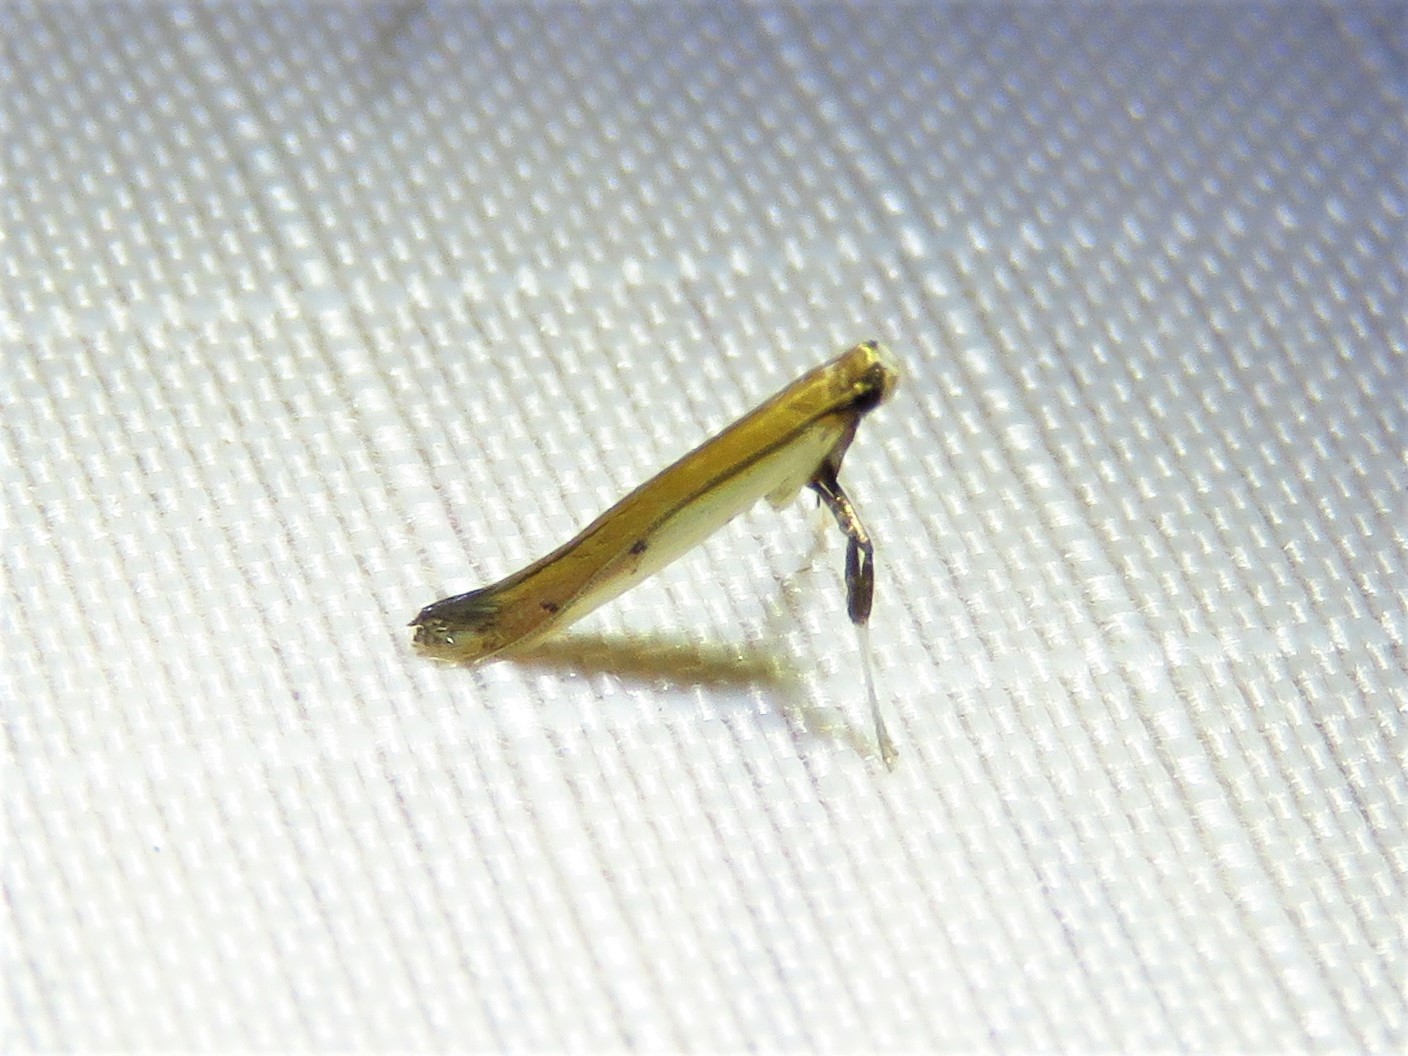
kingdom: Animalia
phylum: Arthropoda
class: Insecta
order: Lepidoptera
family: Gracillariidae
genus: Caloptilia
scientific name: Caloptilia violacella
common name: Tick-trefoil caloptilia moth
